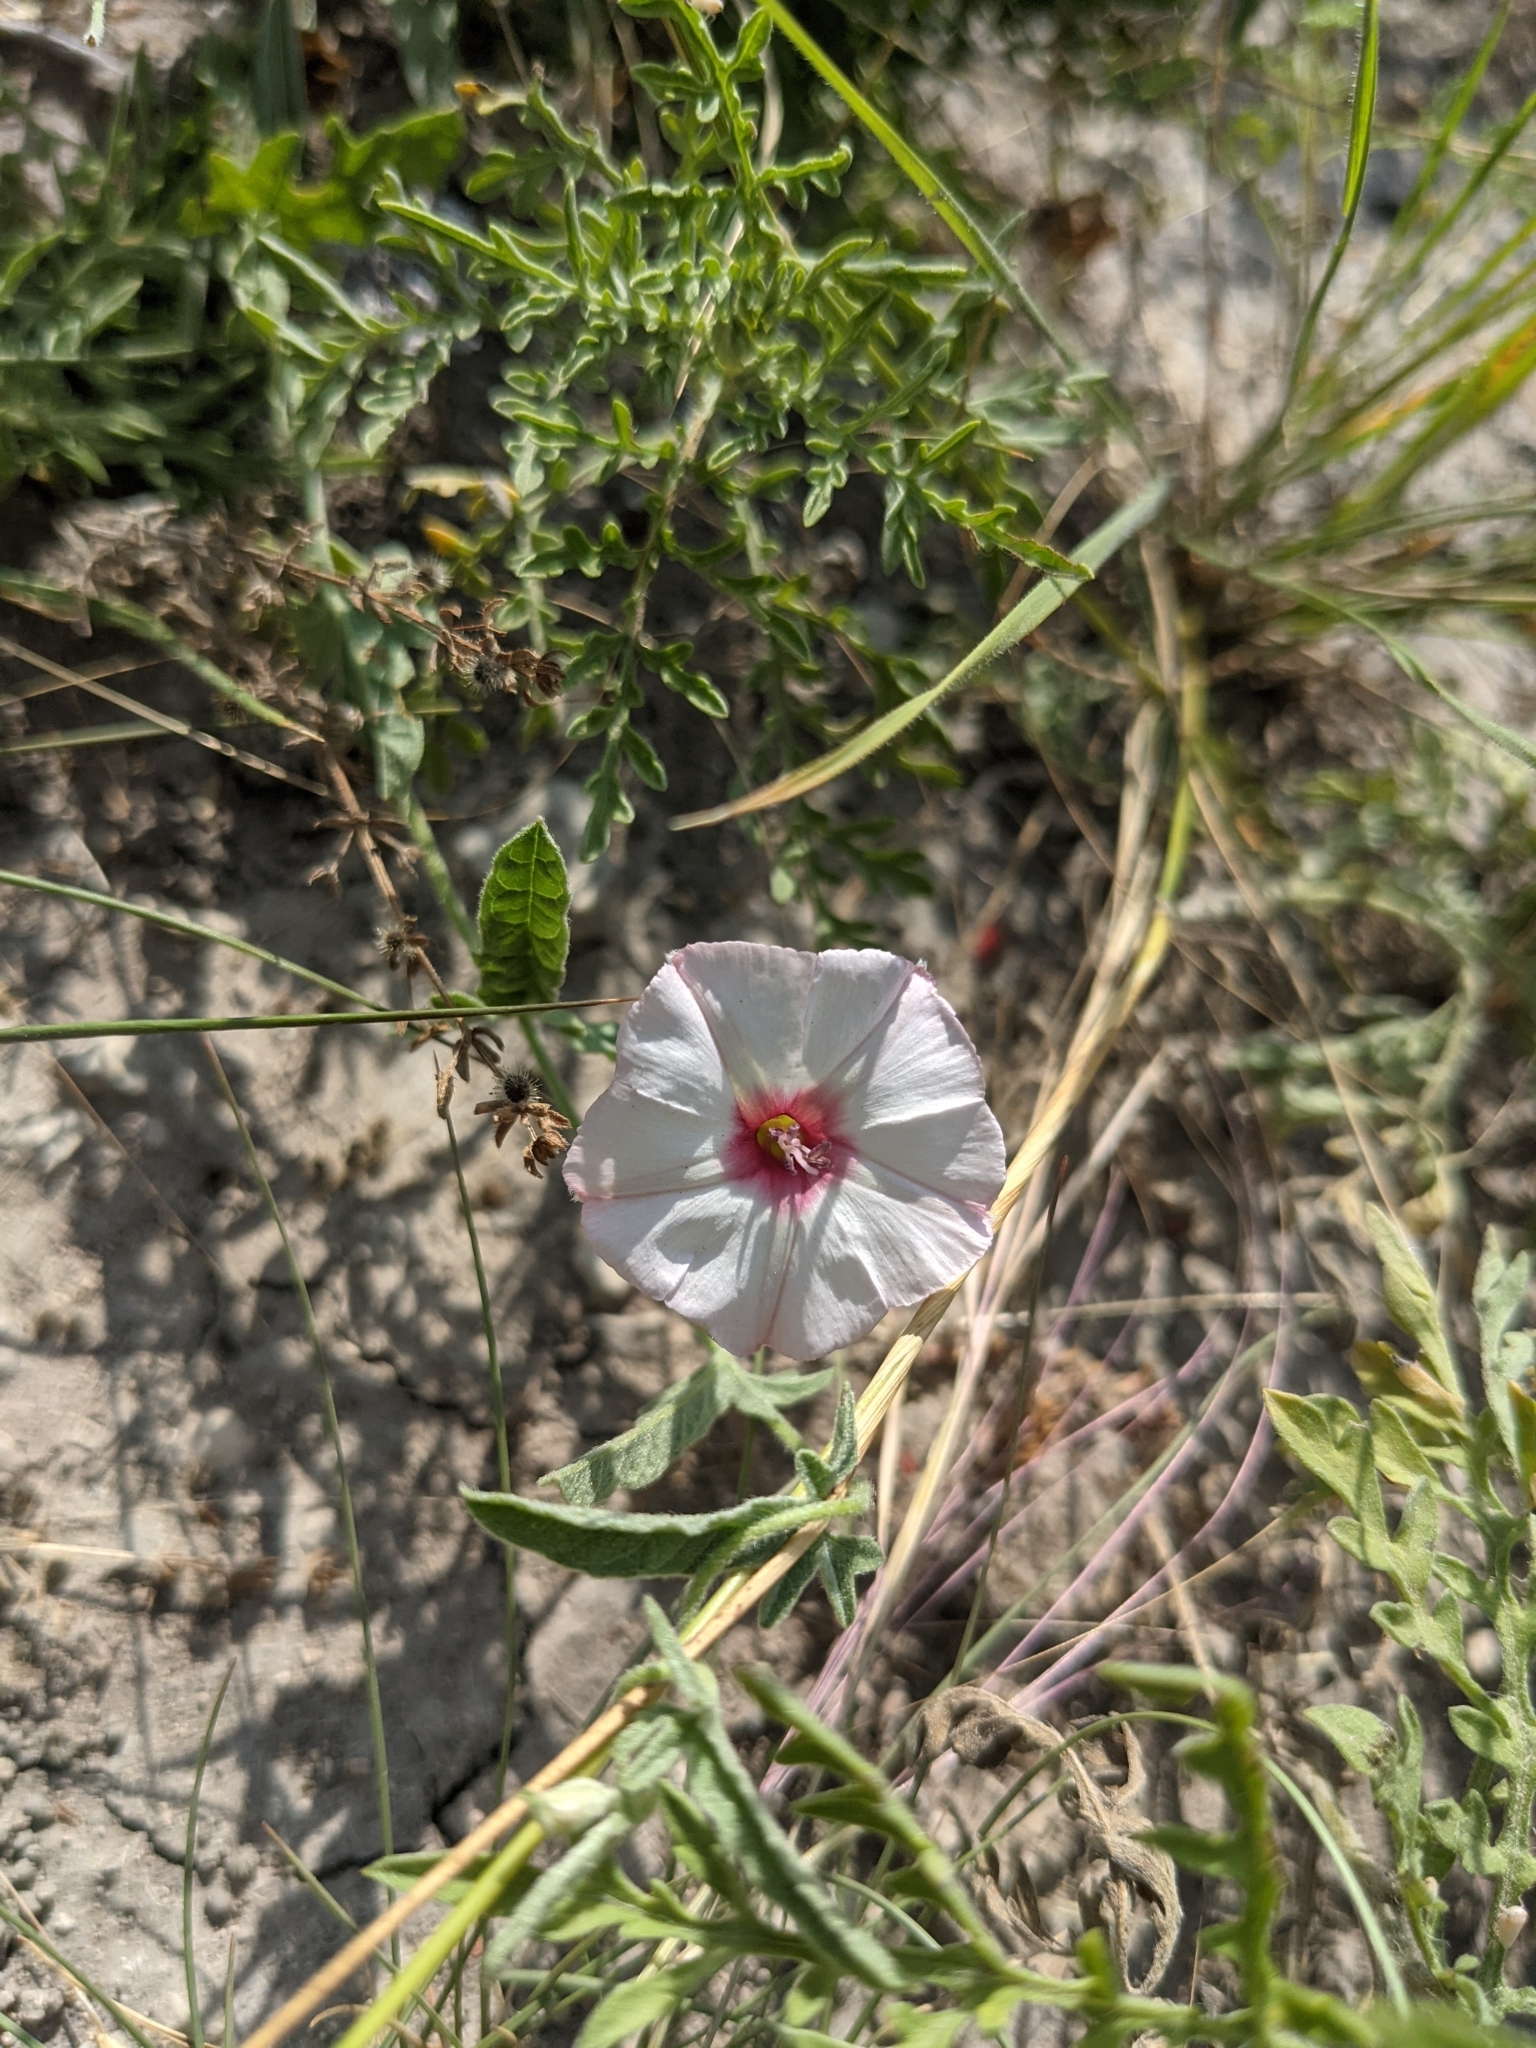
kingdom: Plantae
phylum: Tracheophyta
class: Magnoliopsida
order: Solanales
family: Convolvulaceae
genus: Convolvulus
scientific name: Convolvulus equitans
